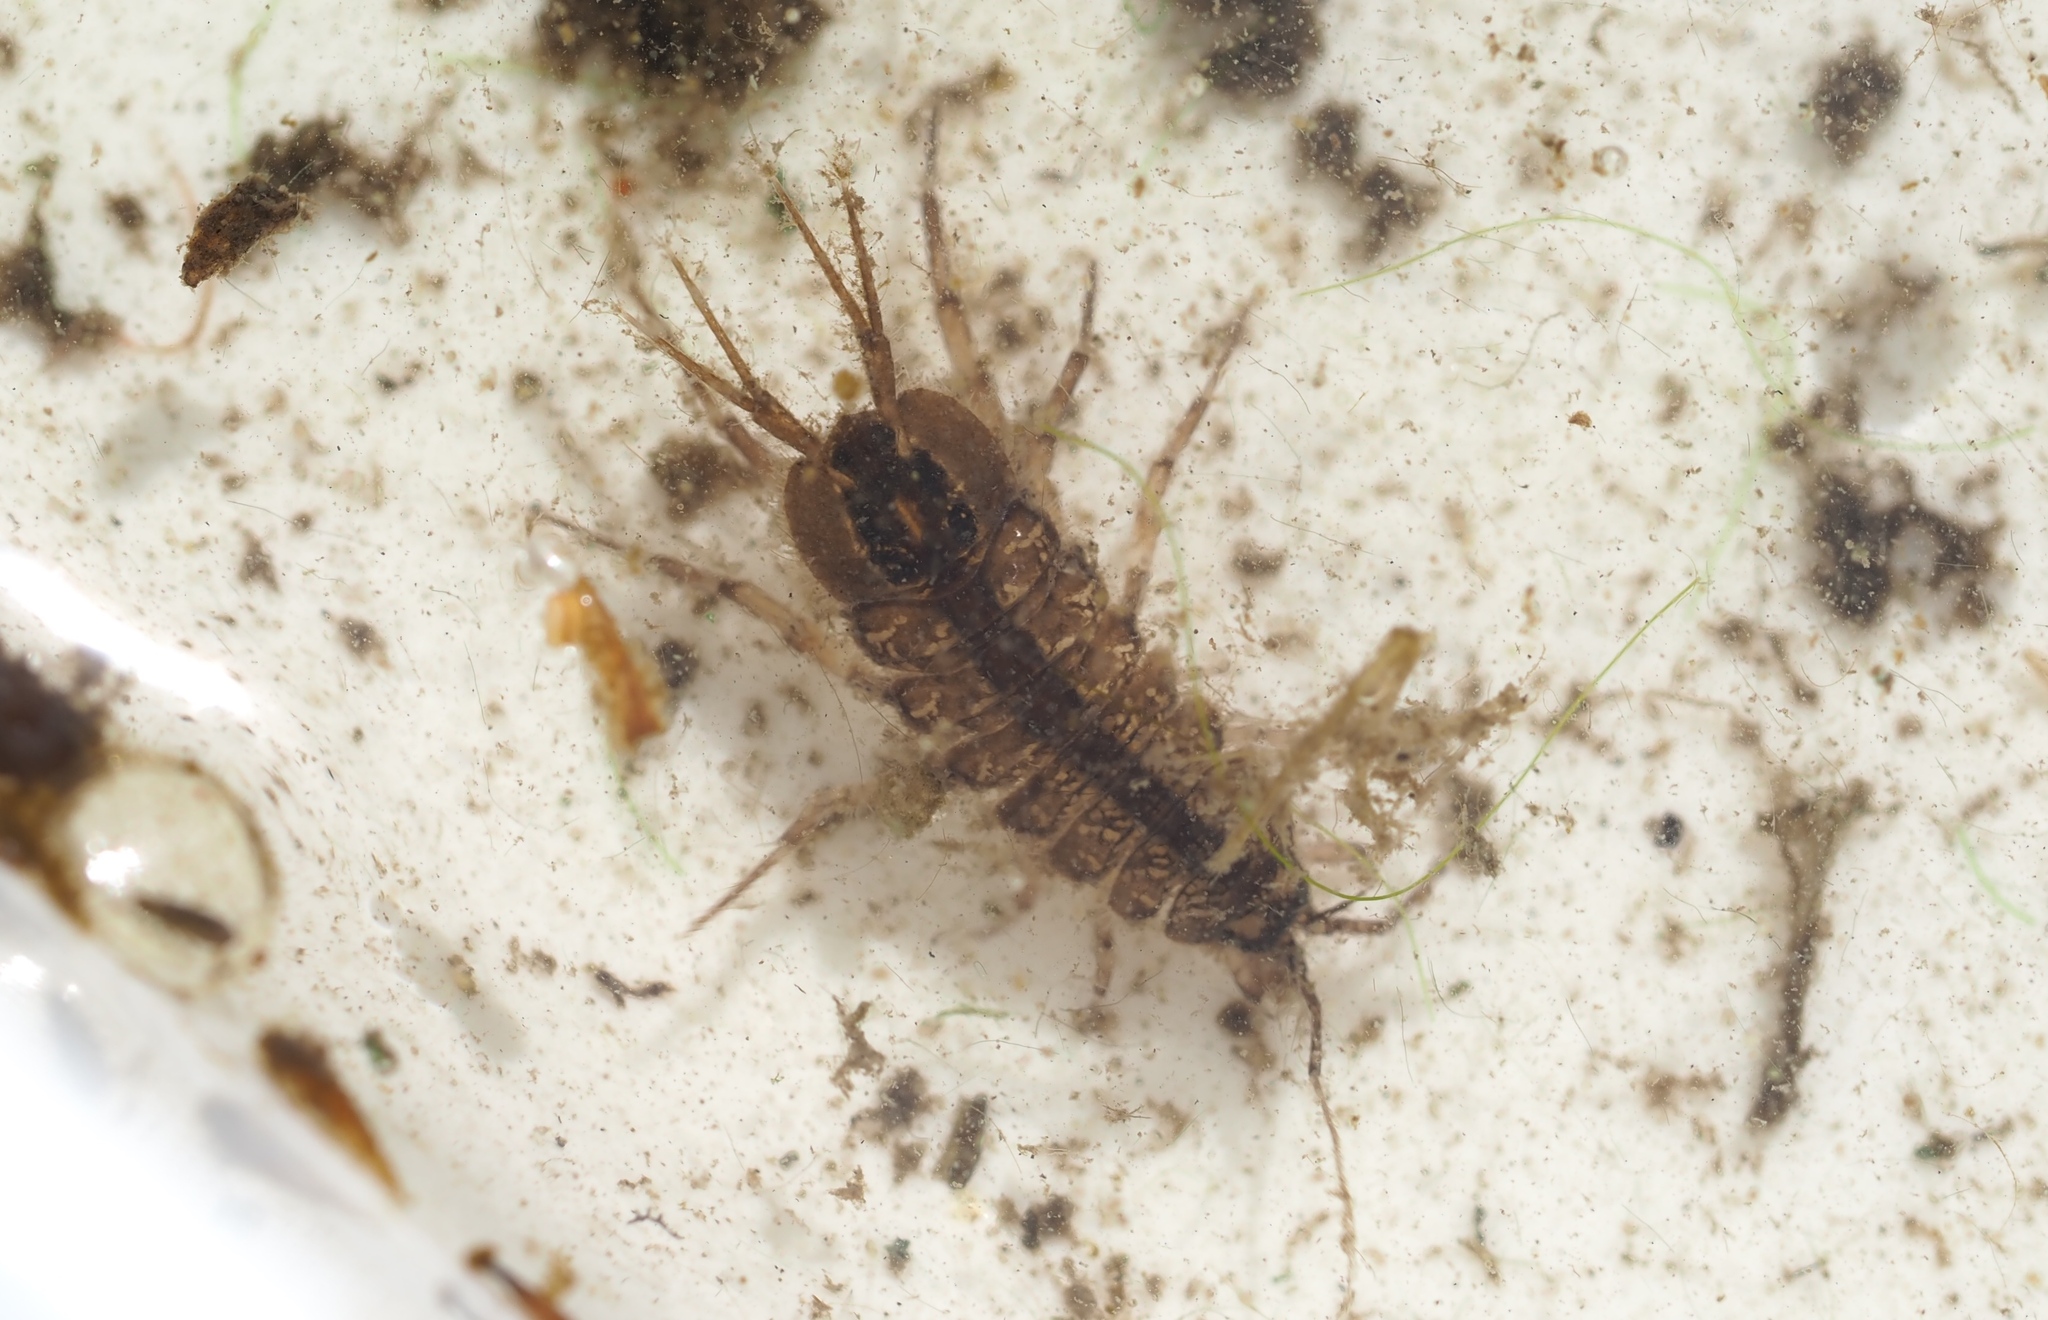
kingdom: Animalia
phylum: Arthropoda
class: Malacostraca
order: Isopoda
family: Asellidae
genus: Asellus
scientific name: Asellus aquaticus
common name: Water hog lice/slaters
